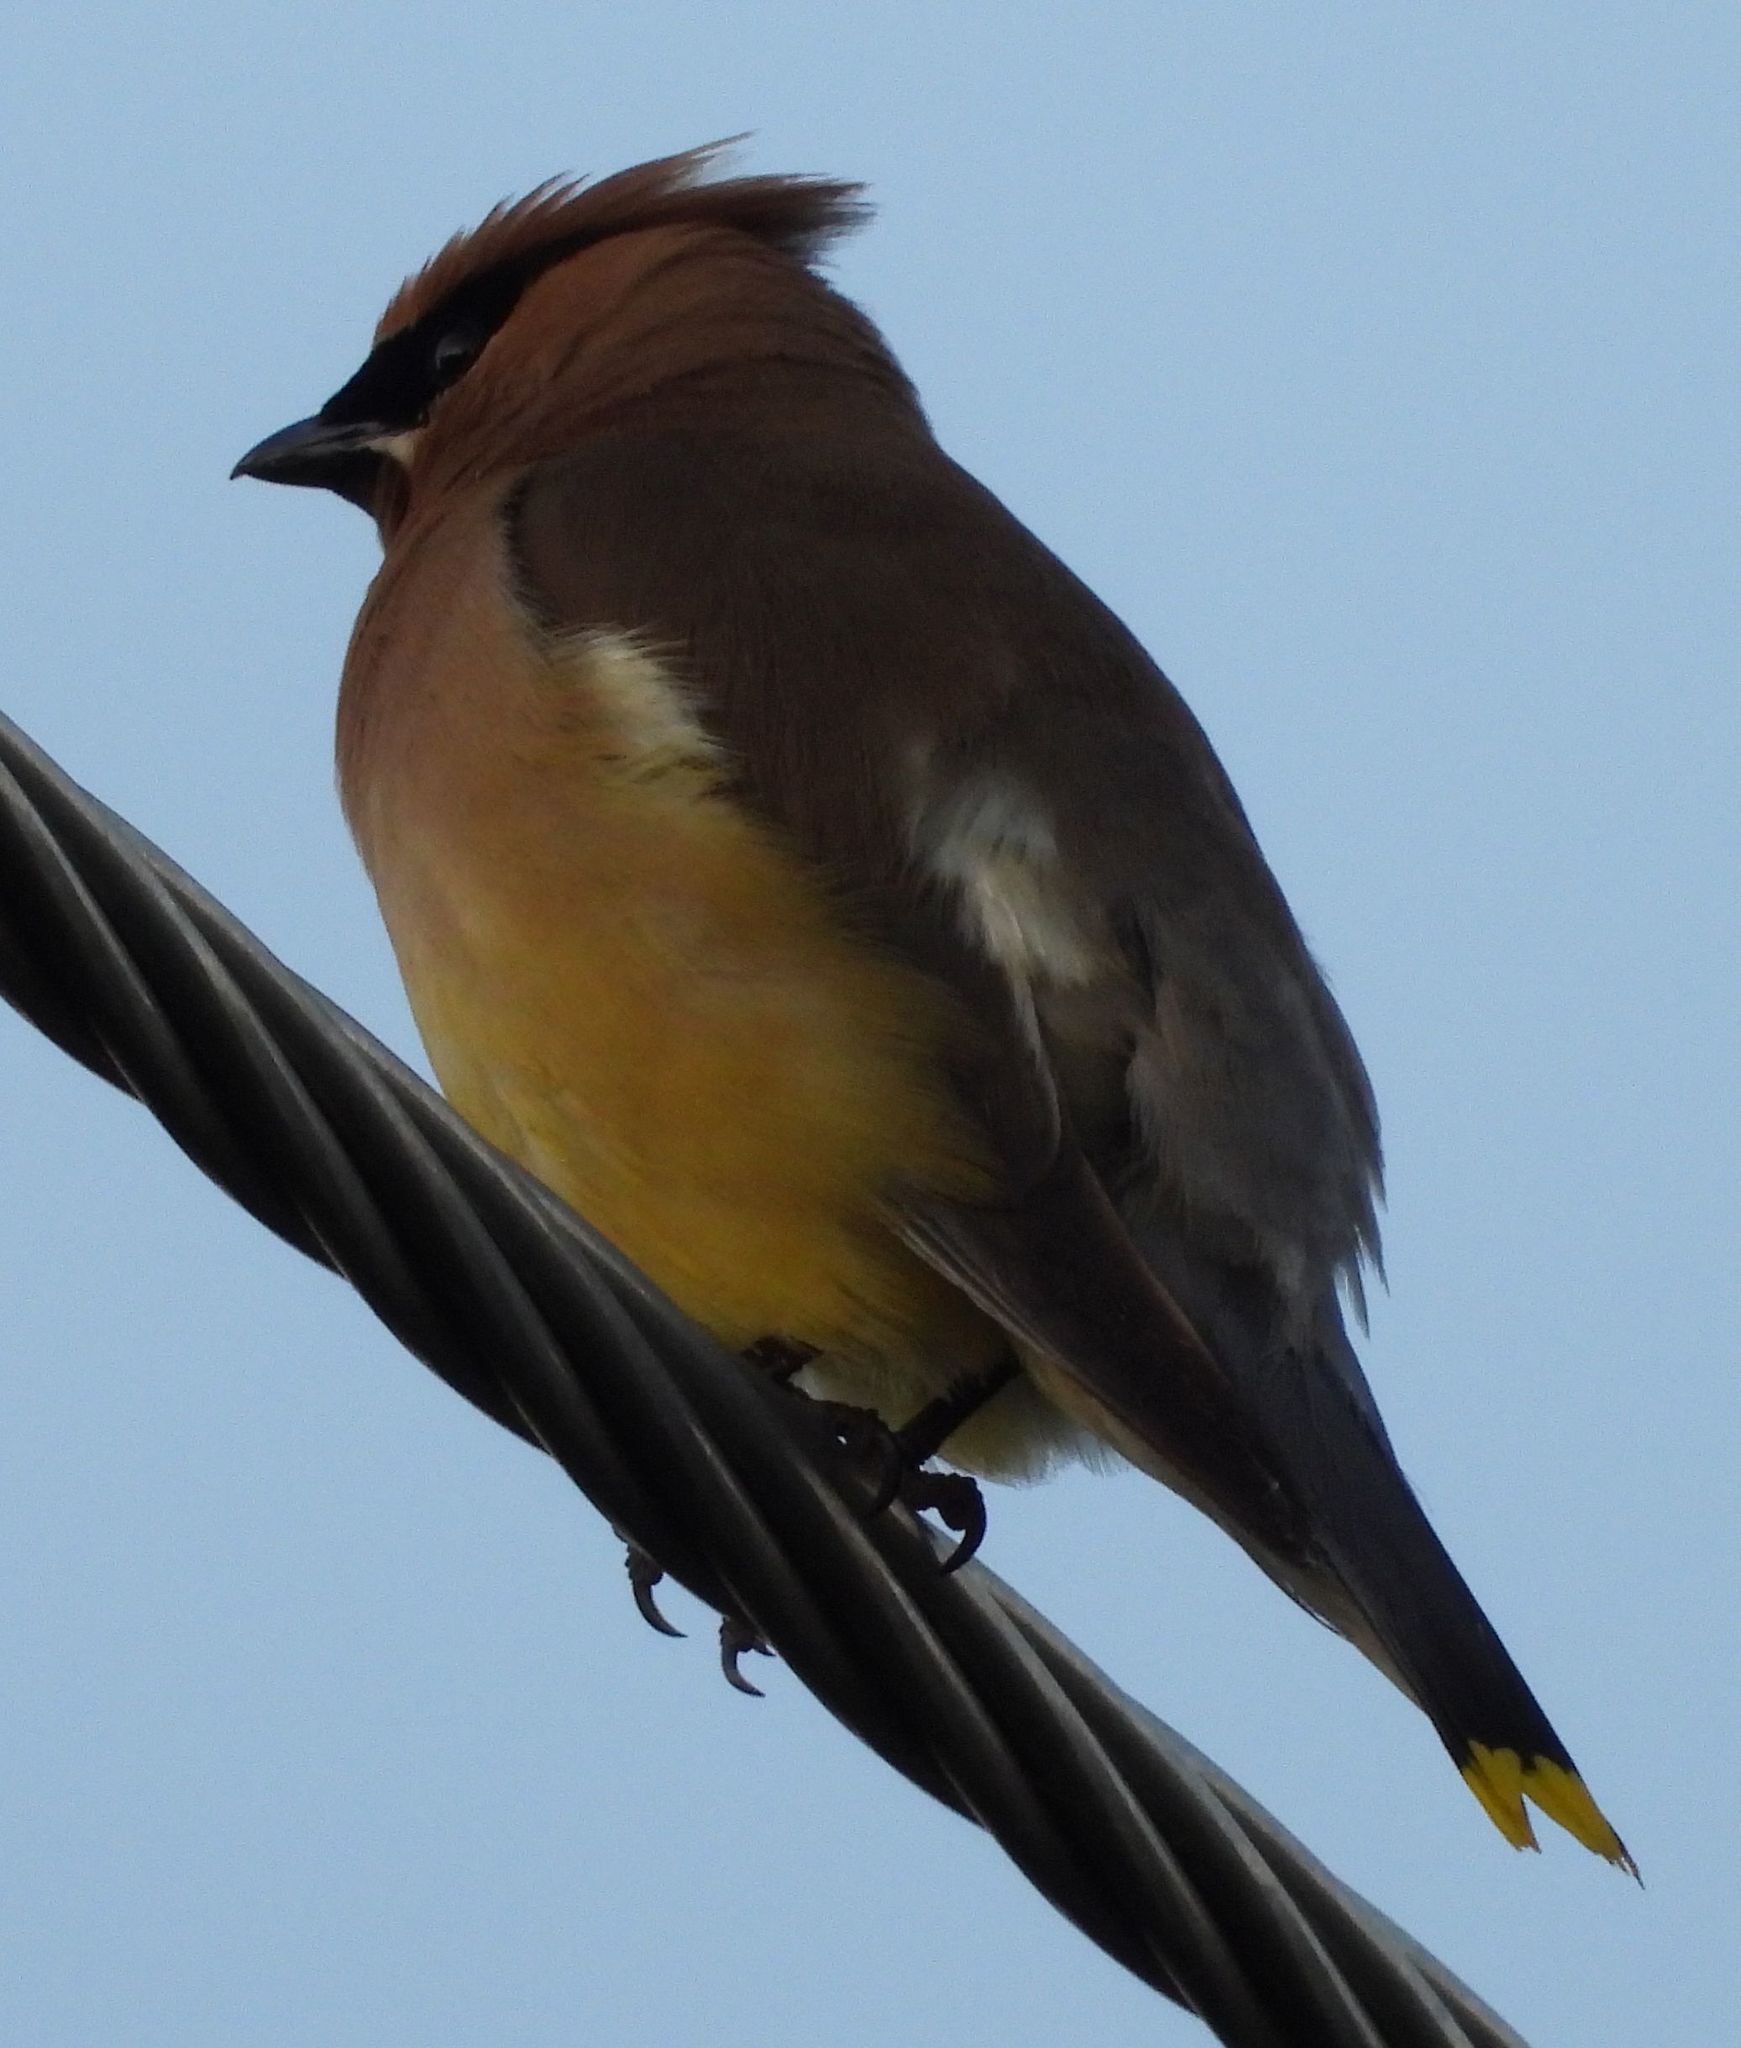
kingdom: Animalia
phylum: Chordata
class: Aves
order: Passeriformes
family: Bombycillidae
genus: Bombycilla
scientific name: Bombycilla cedrorum
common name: Cedar waxwing
